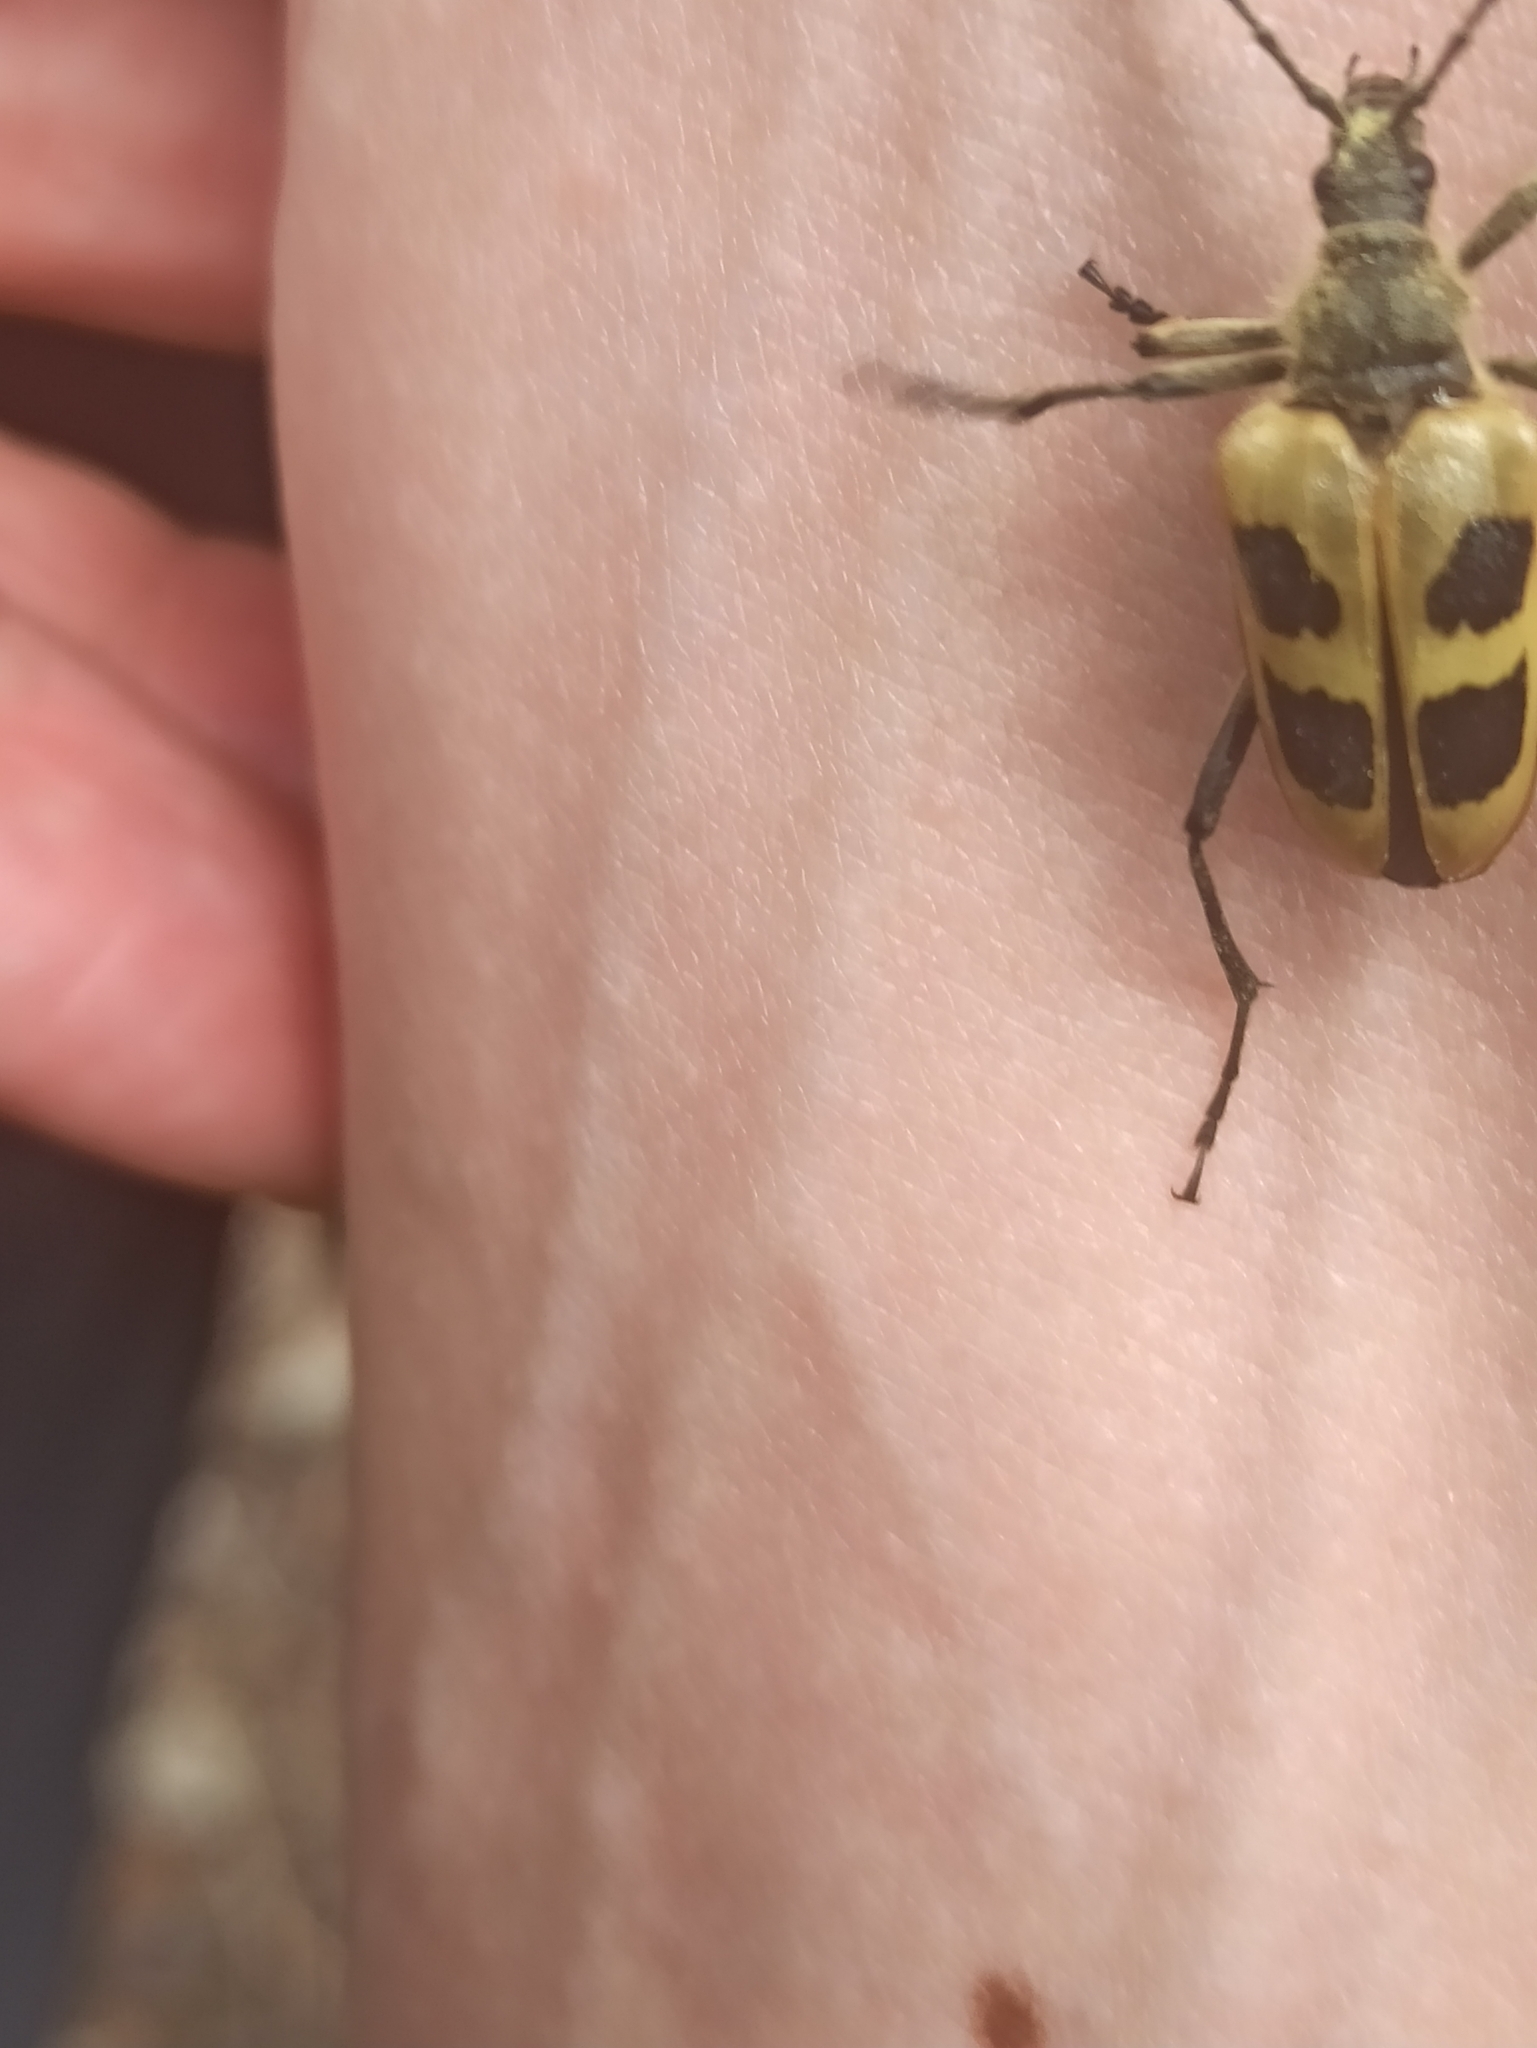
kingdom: Animalia
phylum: Arthropoda
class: Insecta
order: Coleoptera
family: Cerambycidae
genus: Pachyta
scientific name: Pachyta quadrimaculata
